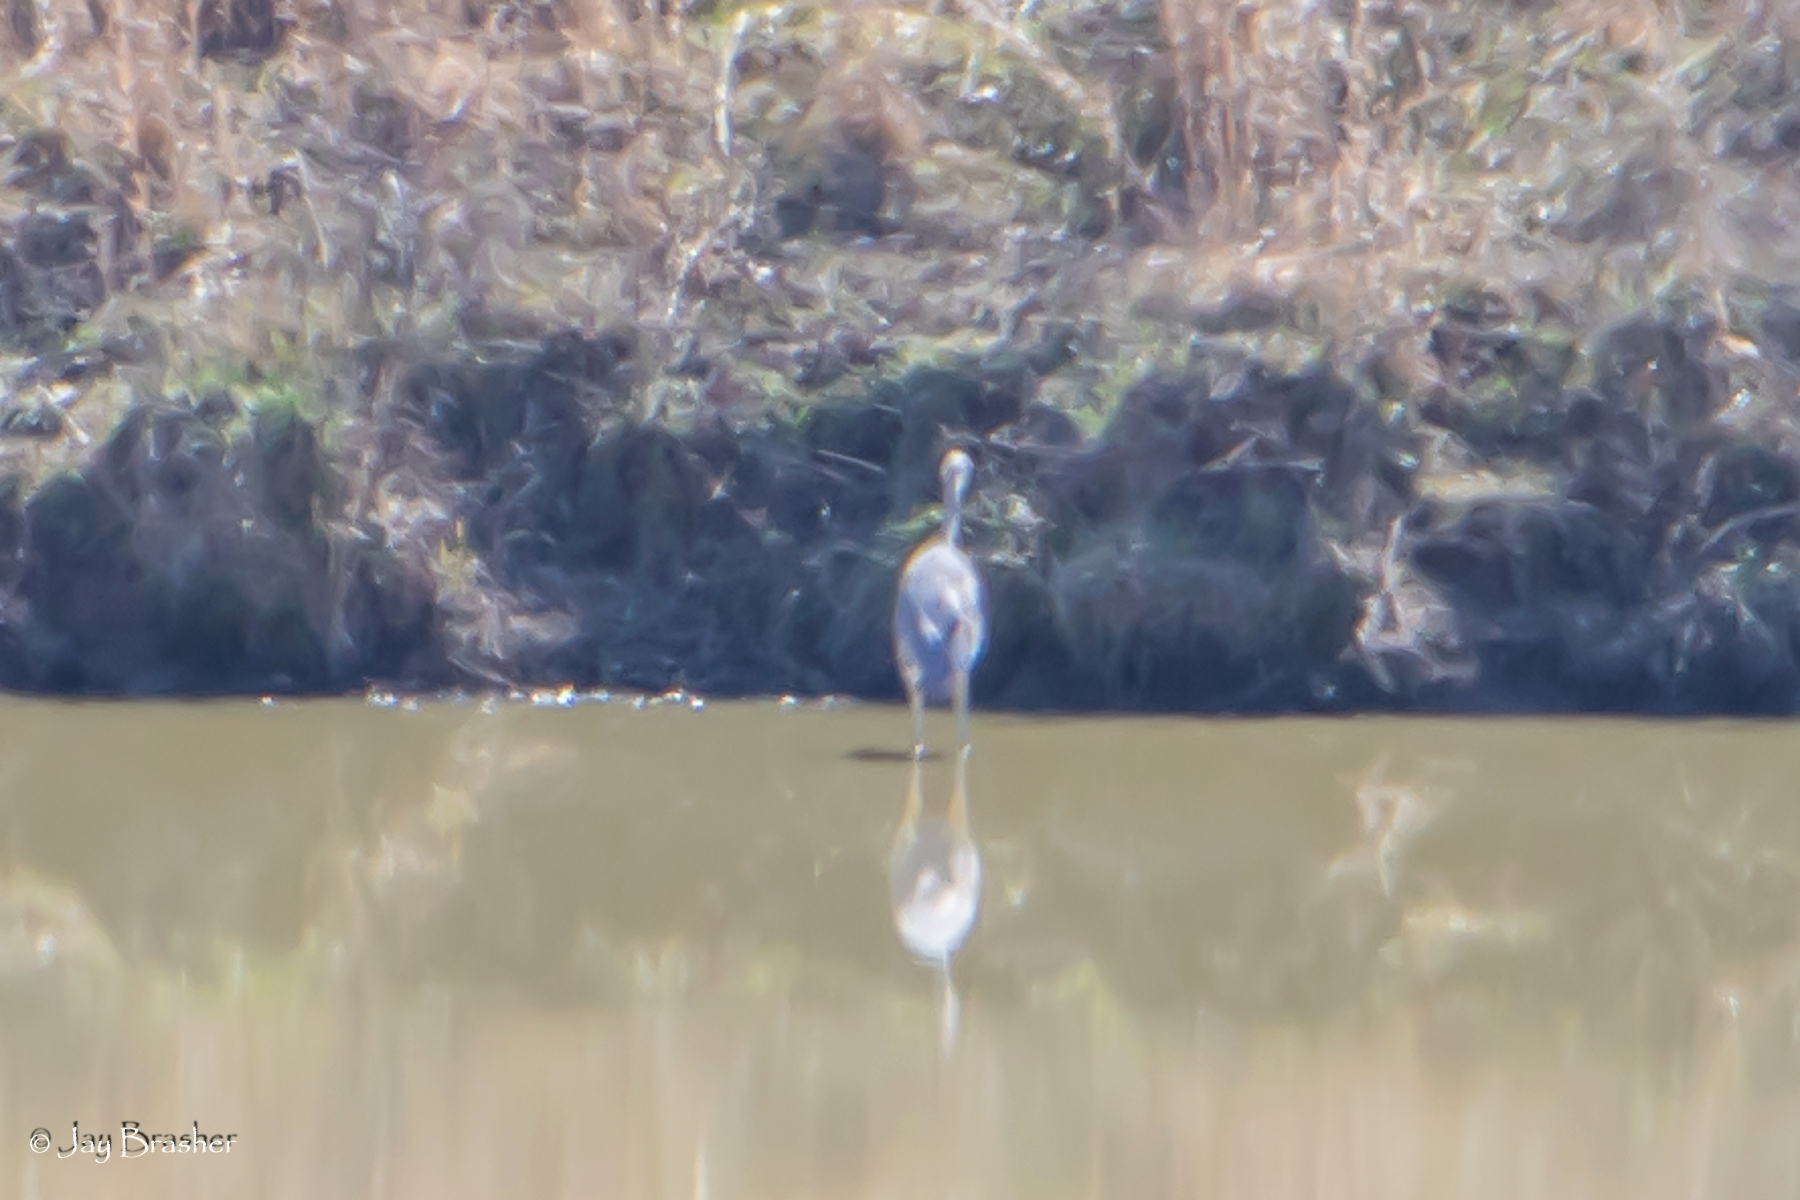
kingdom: Animalia
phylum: Chordata
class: Aves
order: Pelecaniformes
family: Ardeidae
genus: Ardea
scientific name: Ardea herodias
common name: Great blue heron
